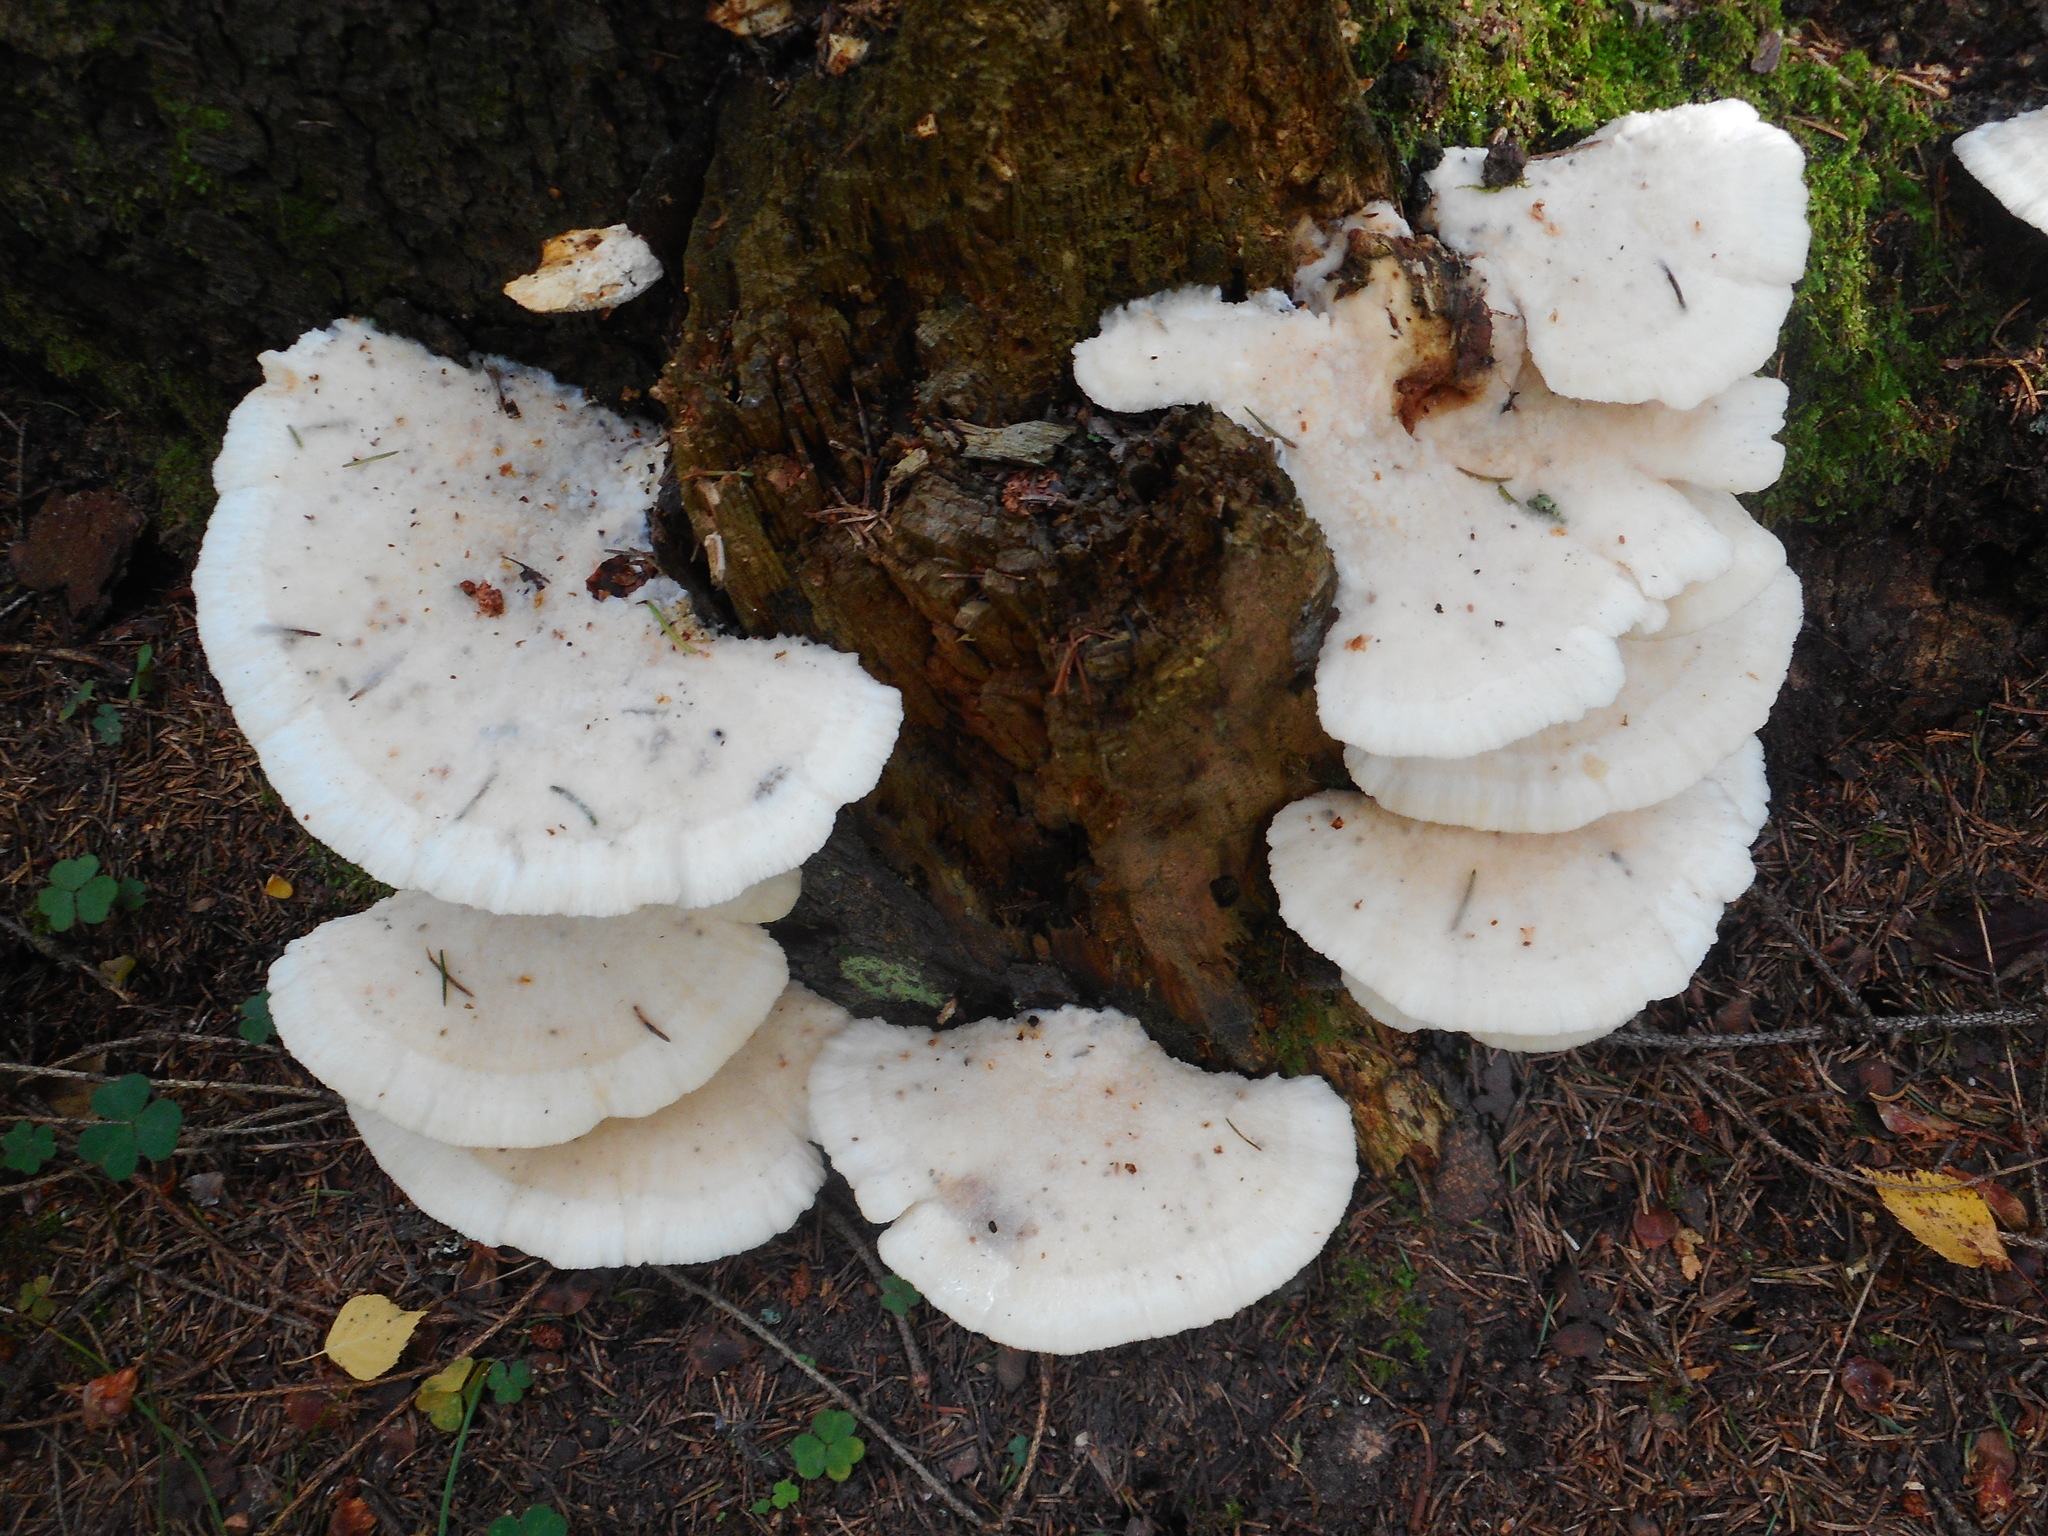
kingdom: Fungi
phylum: Basidiomycota
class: Agaricomycetes
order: Polyporales
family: Fomitopsidaceae
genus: Climacocystis
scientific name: Climacocystis borealis
